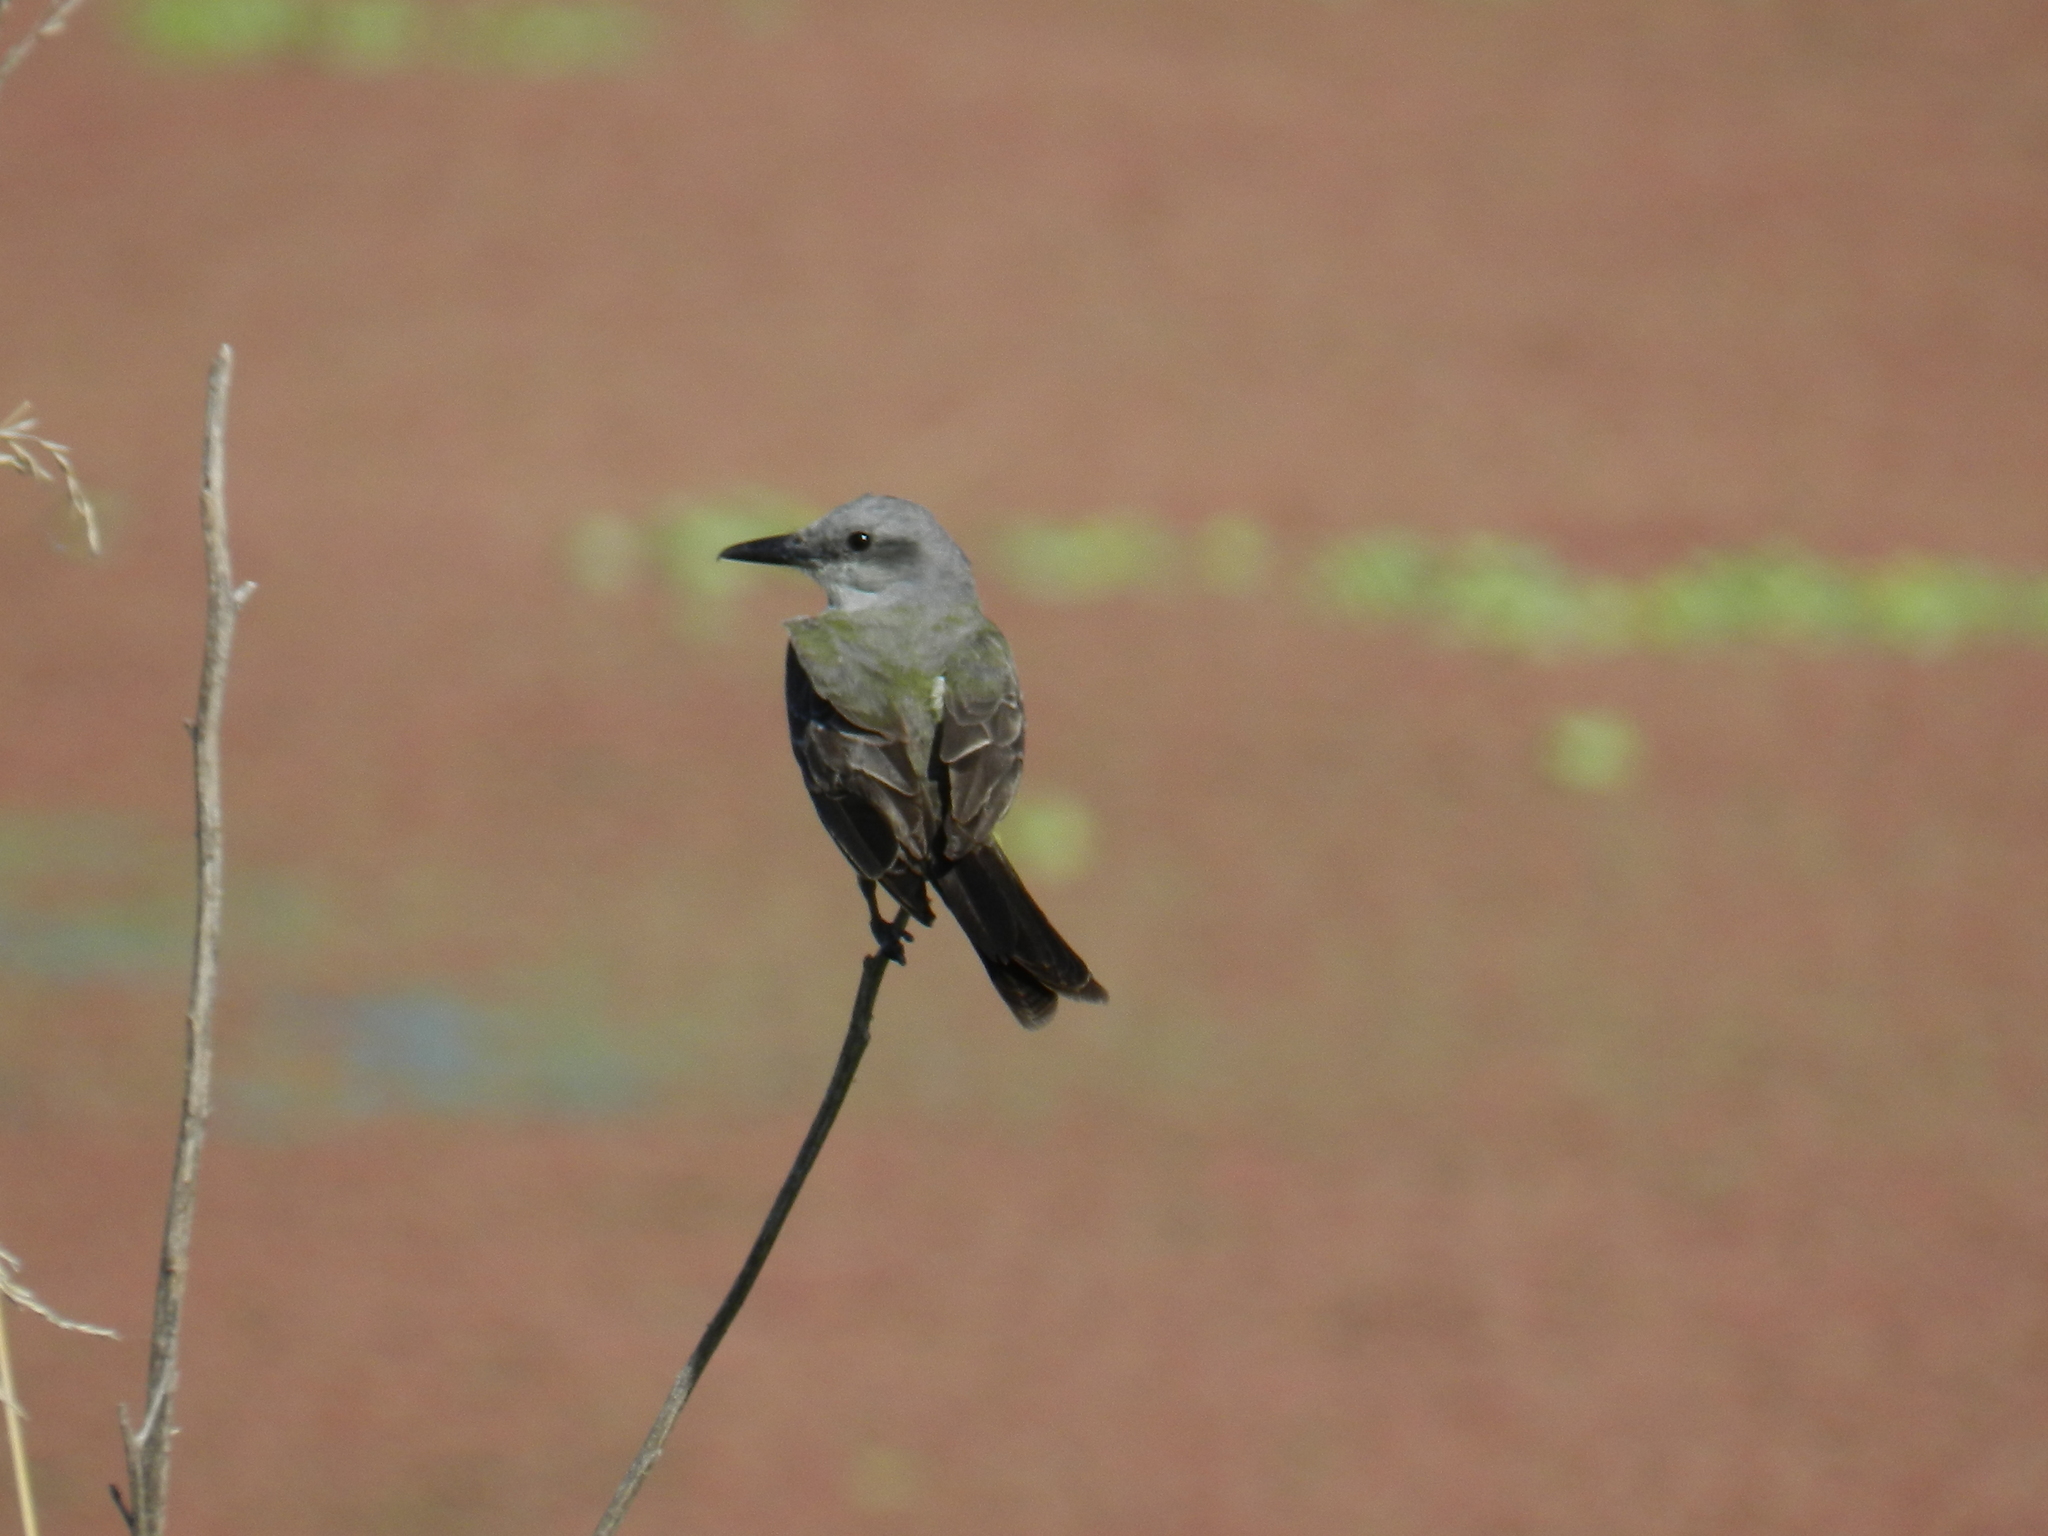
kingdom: Animalia
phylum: Chordata
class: Aves
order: Passeriformes
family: Tyrannidae
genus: Tyrannus
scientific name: Tyrannus melancholicus
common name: Tropical kingbird
